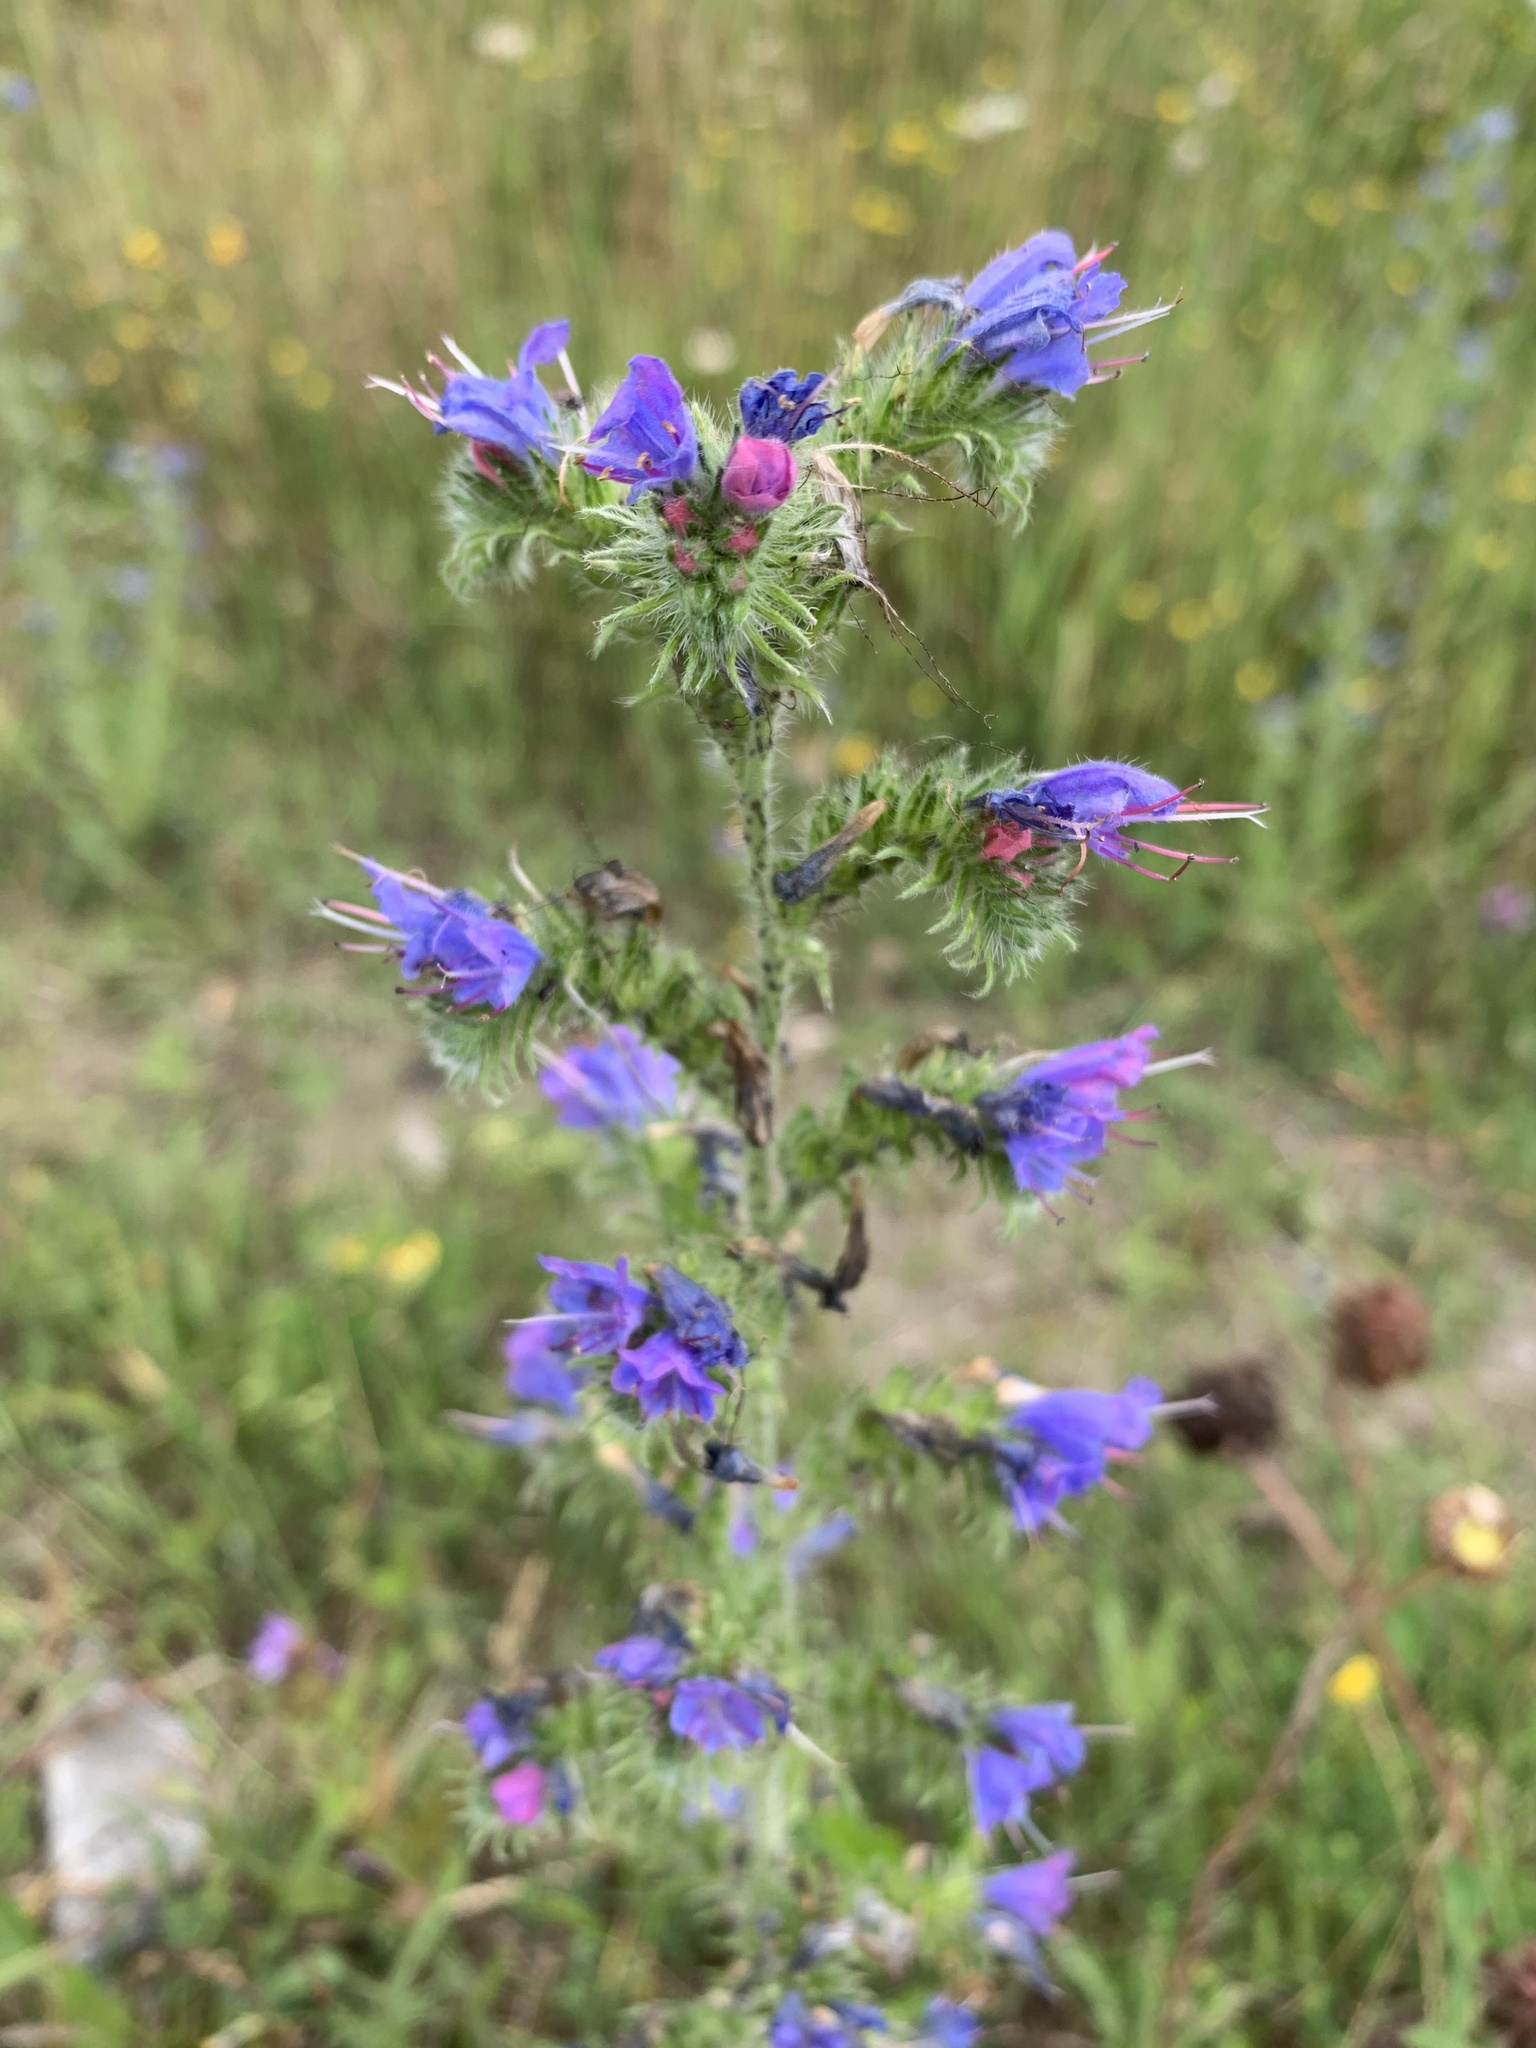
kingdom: Plantae
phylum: Tracheophyta
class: Magnoliopsida
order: Boraginales
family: Boraginaceae
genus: Echium
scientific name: Echium vulgare
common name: Common viper's bugloss
